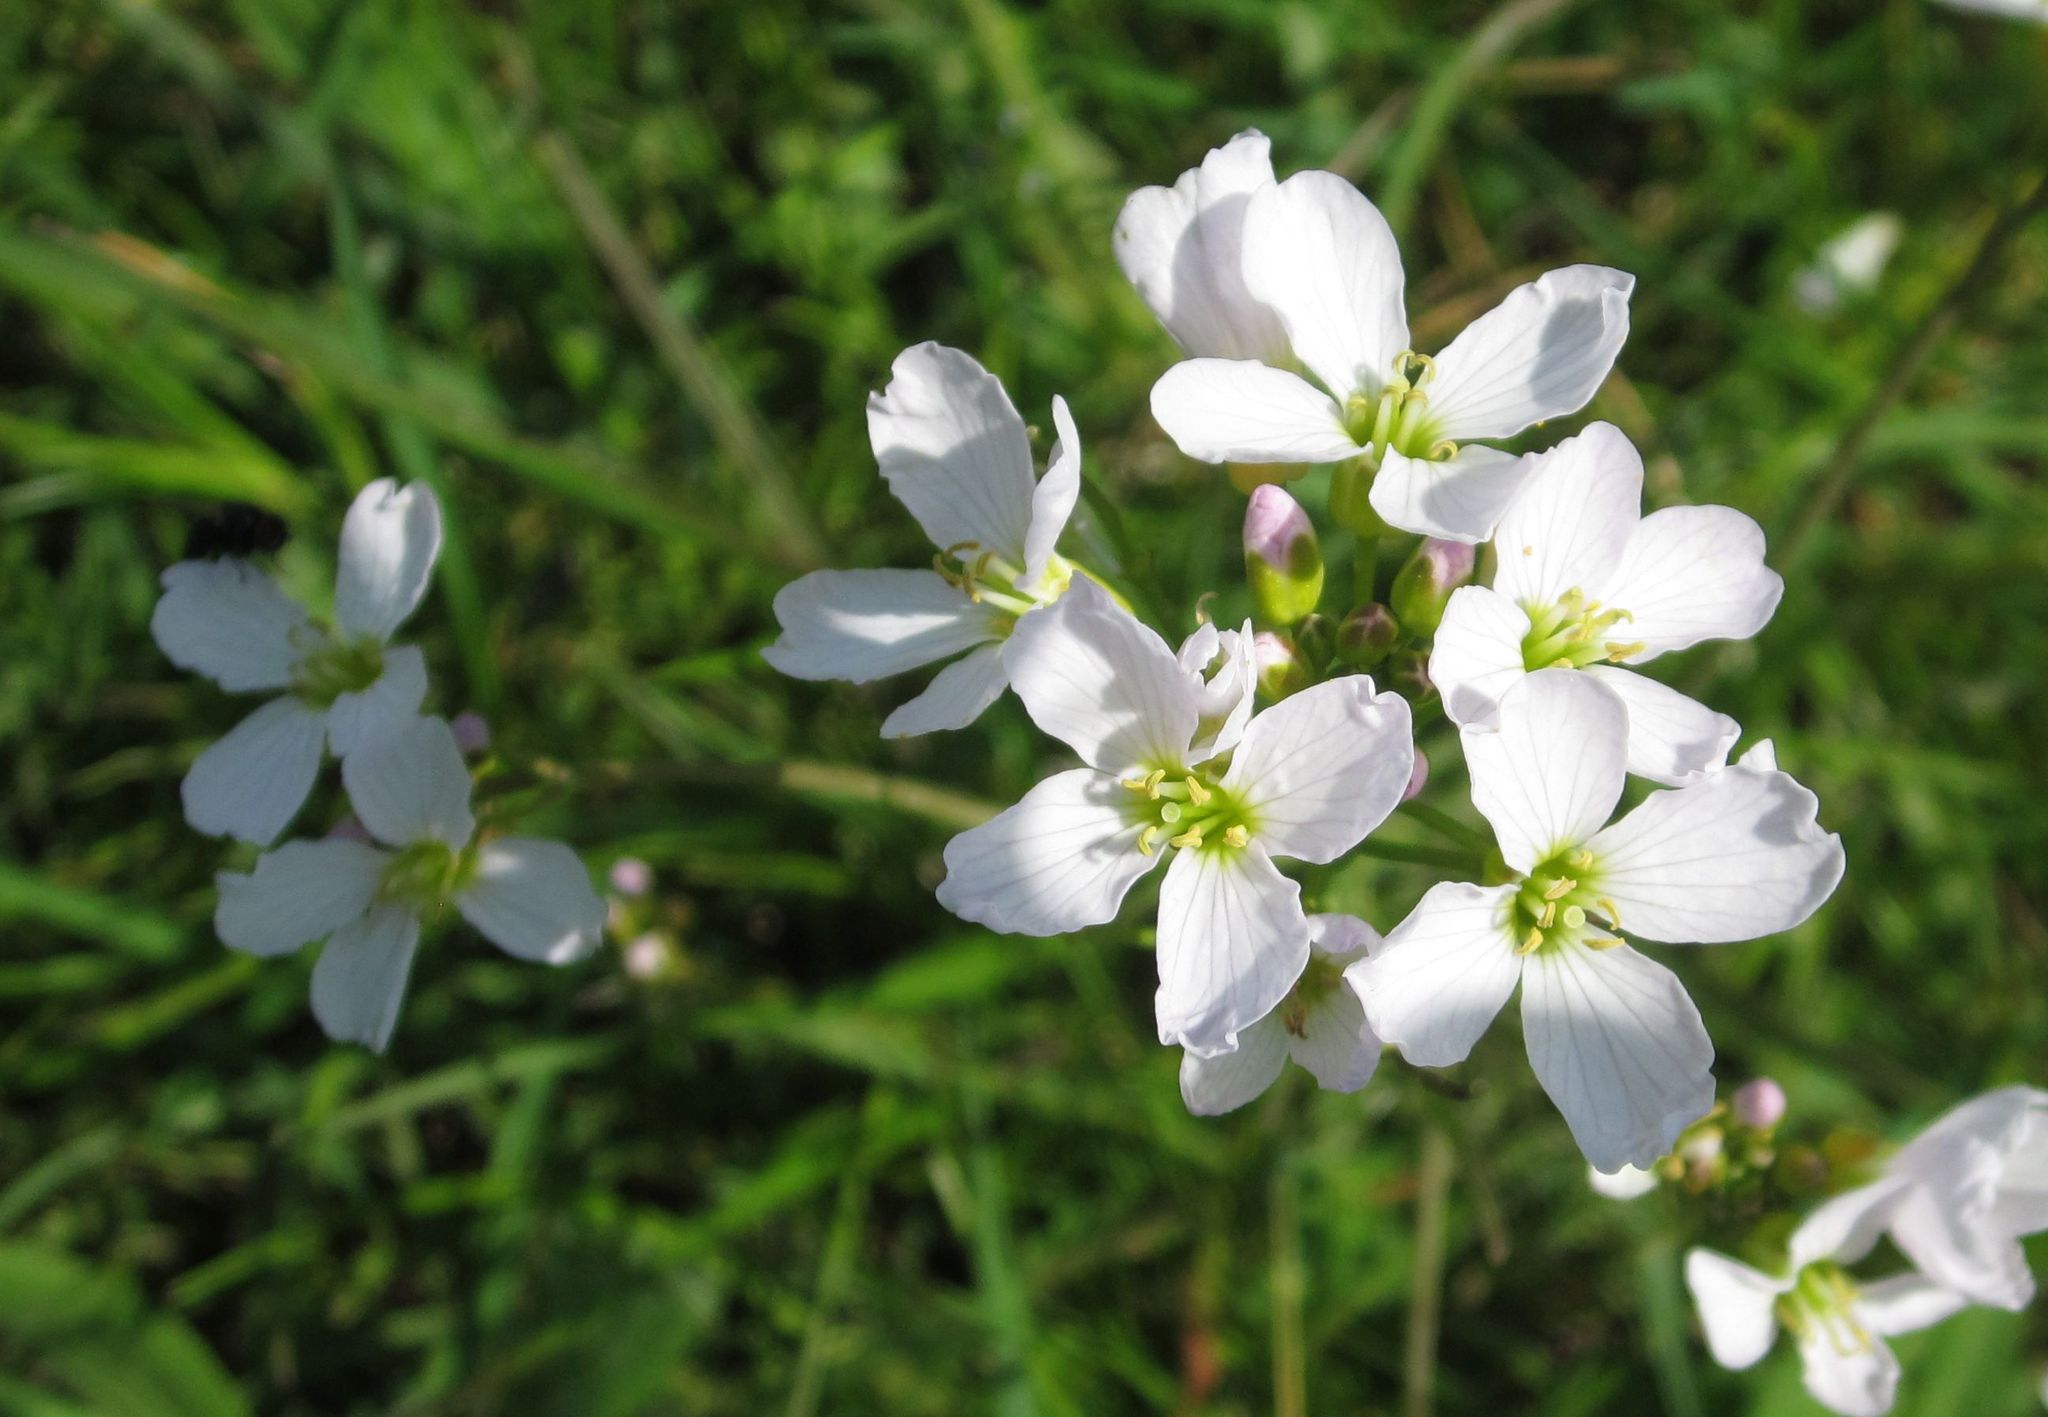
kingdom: Plantae
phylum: Tracheophyta
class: Magnoliopsida
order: Brassicales
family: Brassicaceae
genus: Cardamine
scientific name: Cardamine pratensis
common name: Cuckoo flower
